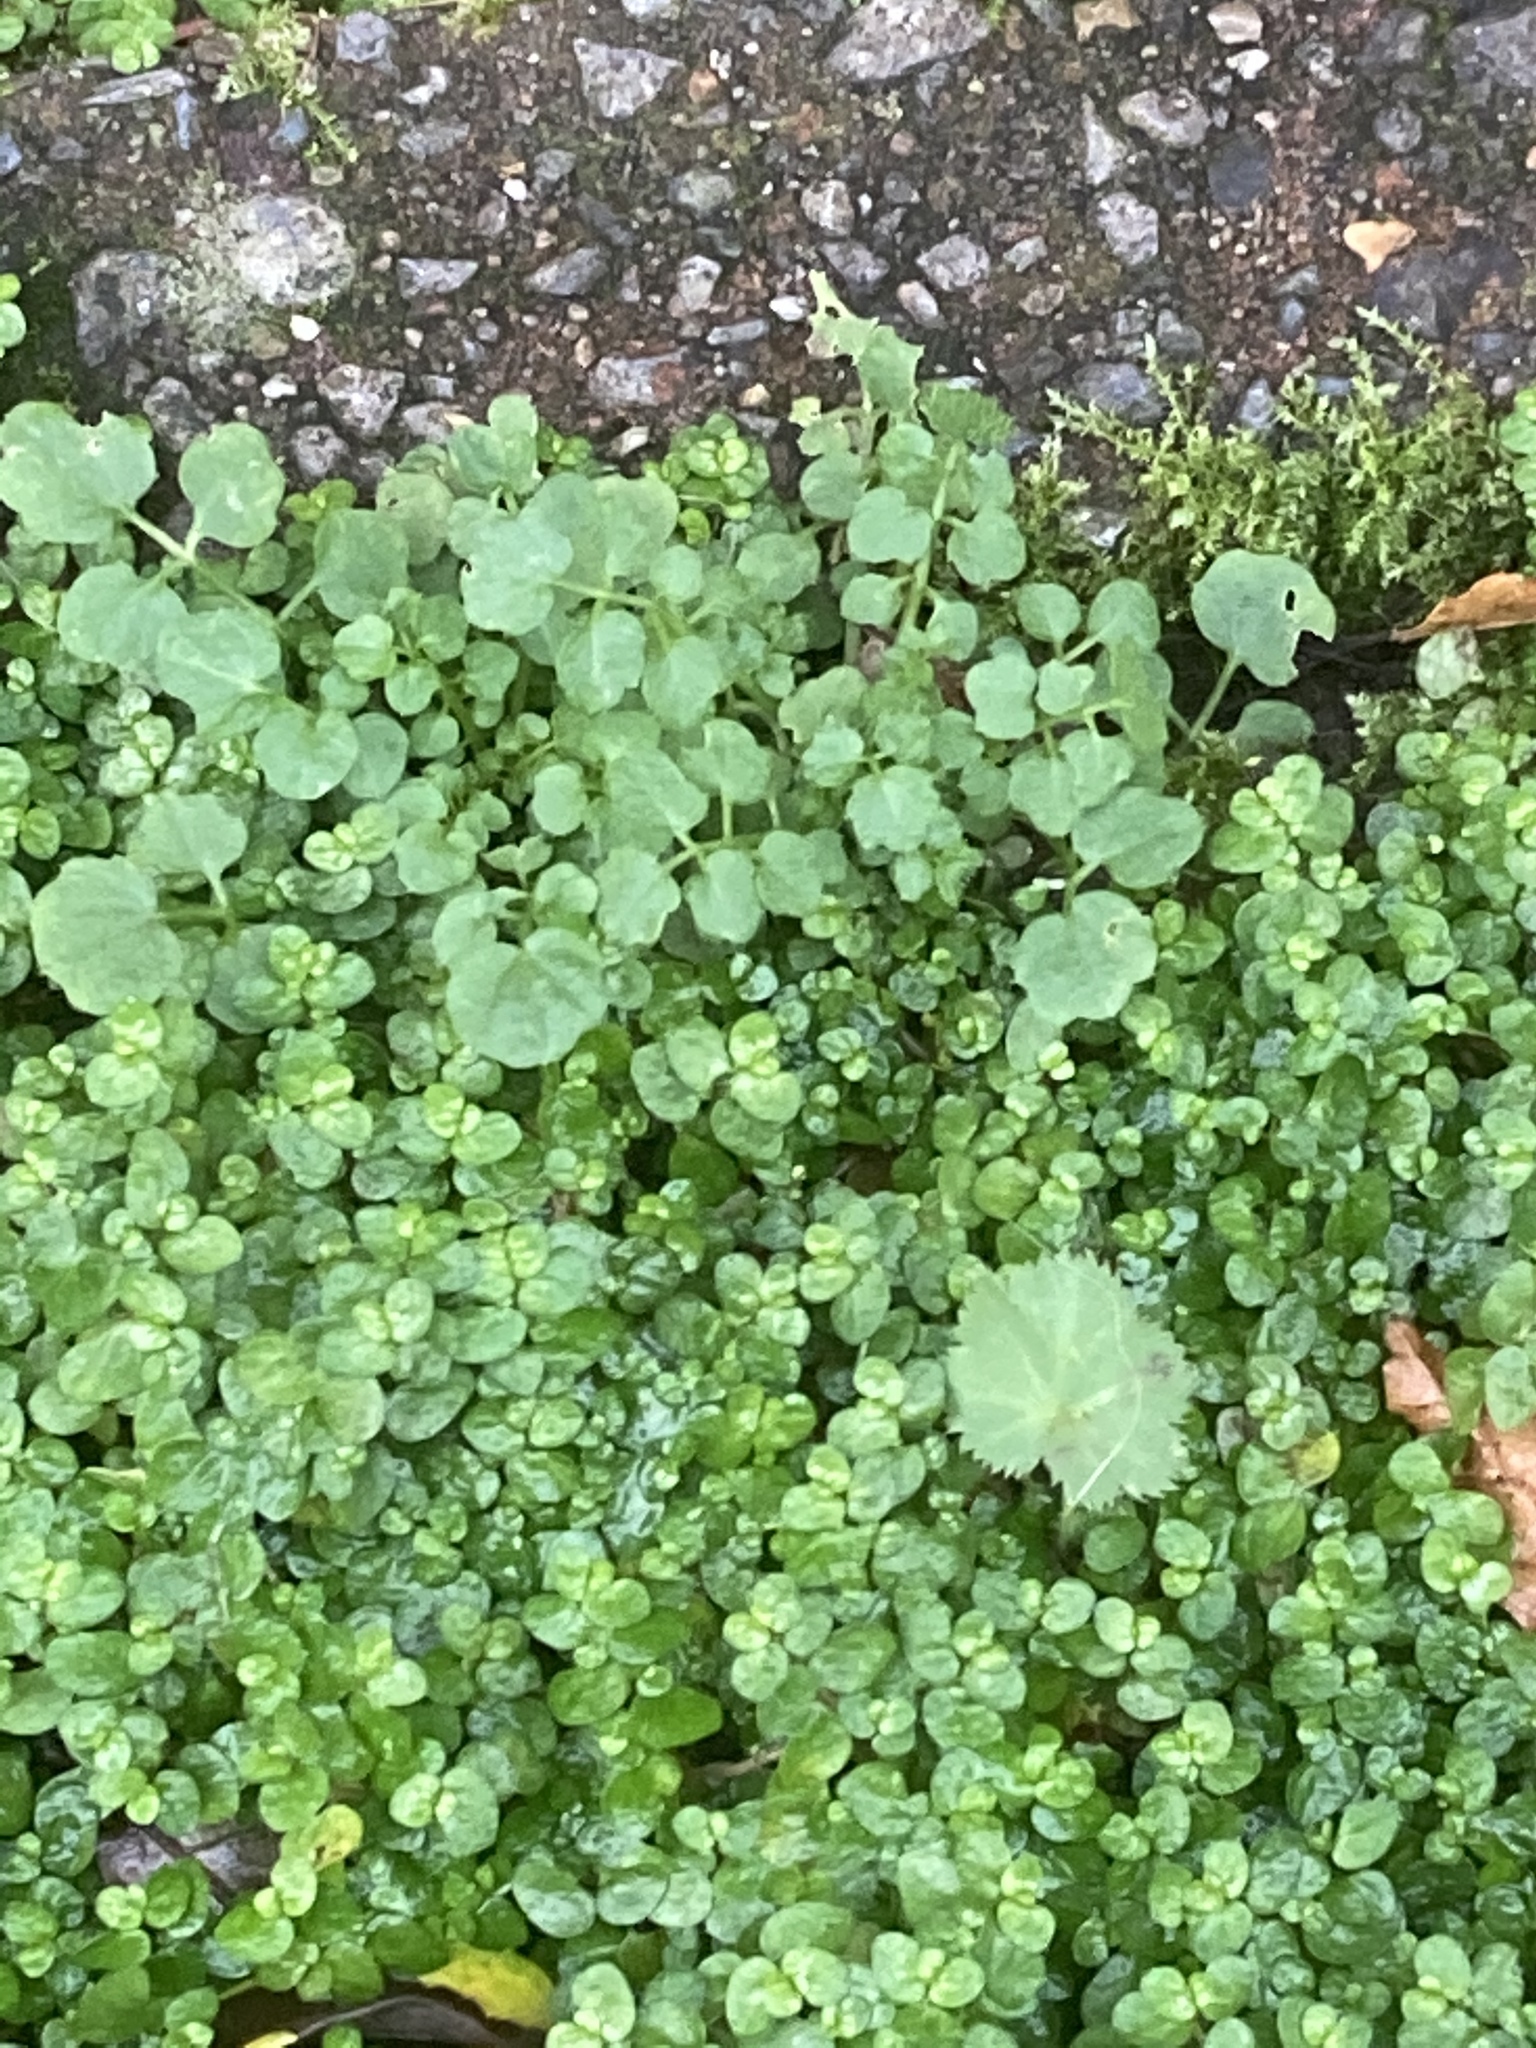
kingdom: Plantae
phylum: Tracheophyta
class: Magnoliopsida
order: Rosales
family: Urticaceae
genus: Soleirolia
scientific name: Soleirolia soleirolii
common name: Mind-your-own-business
